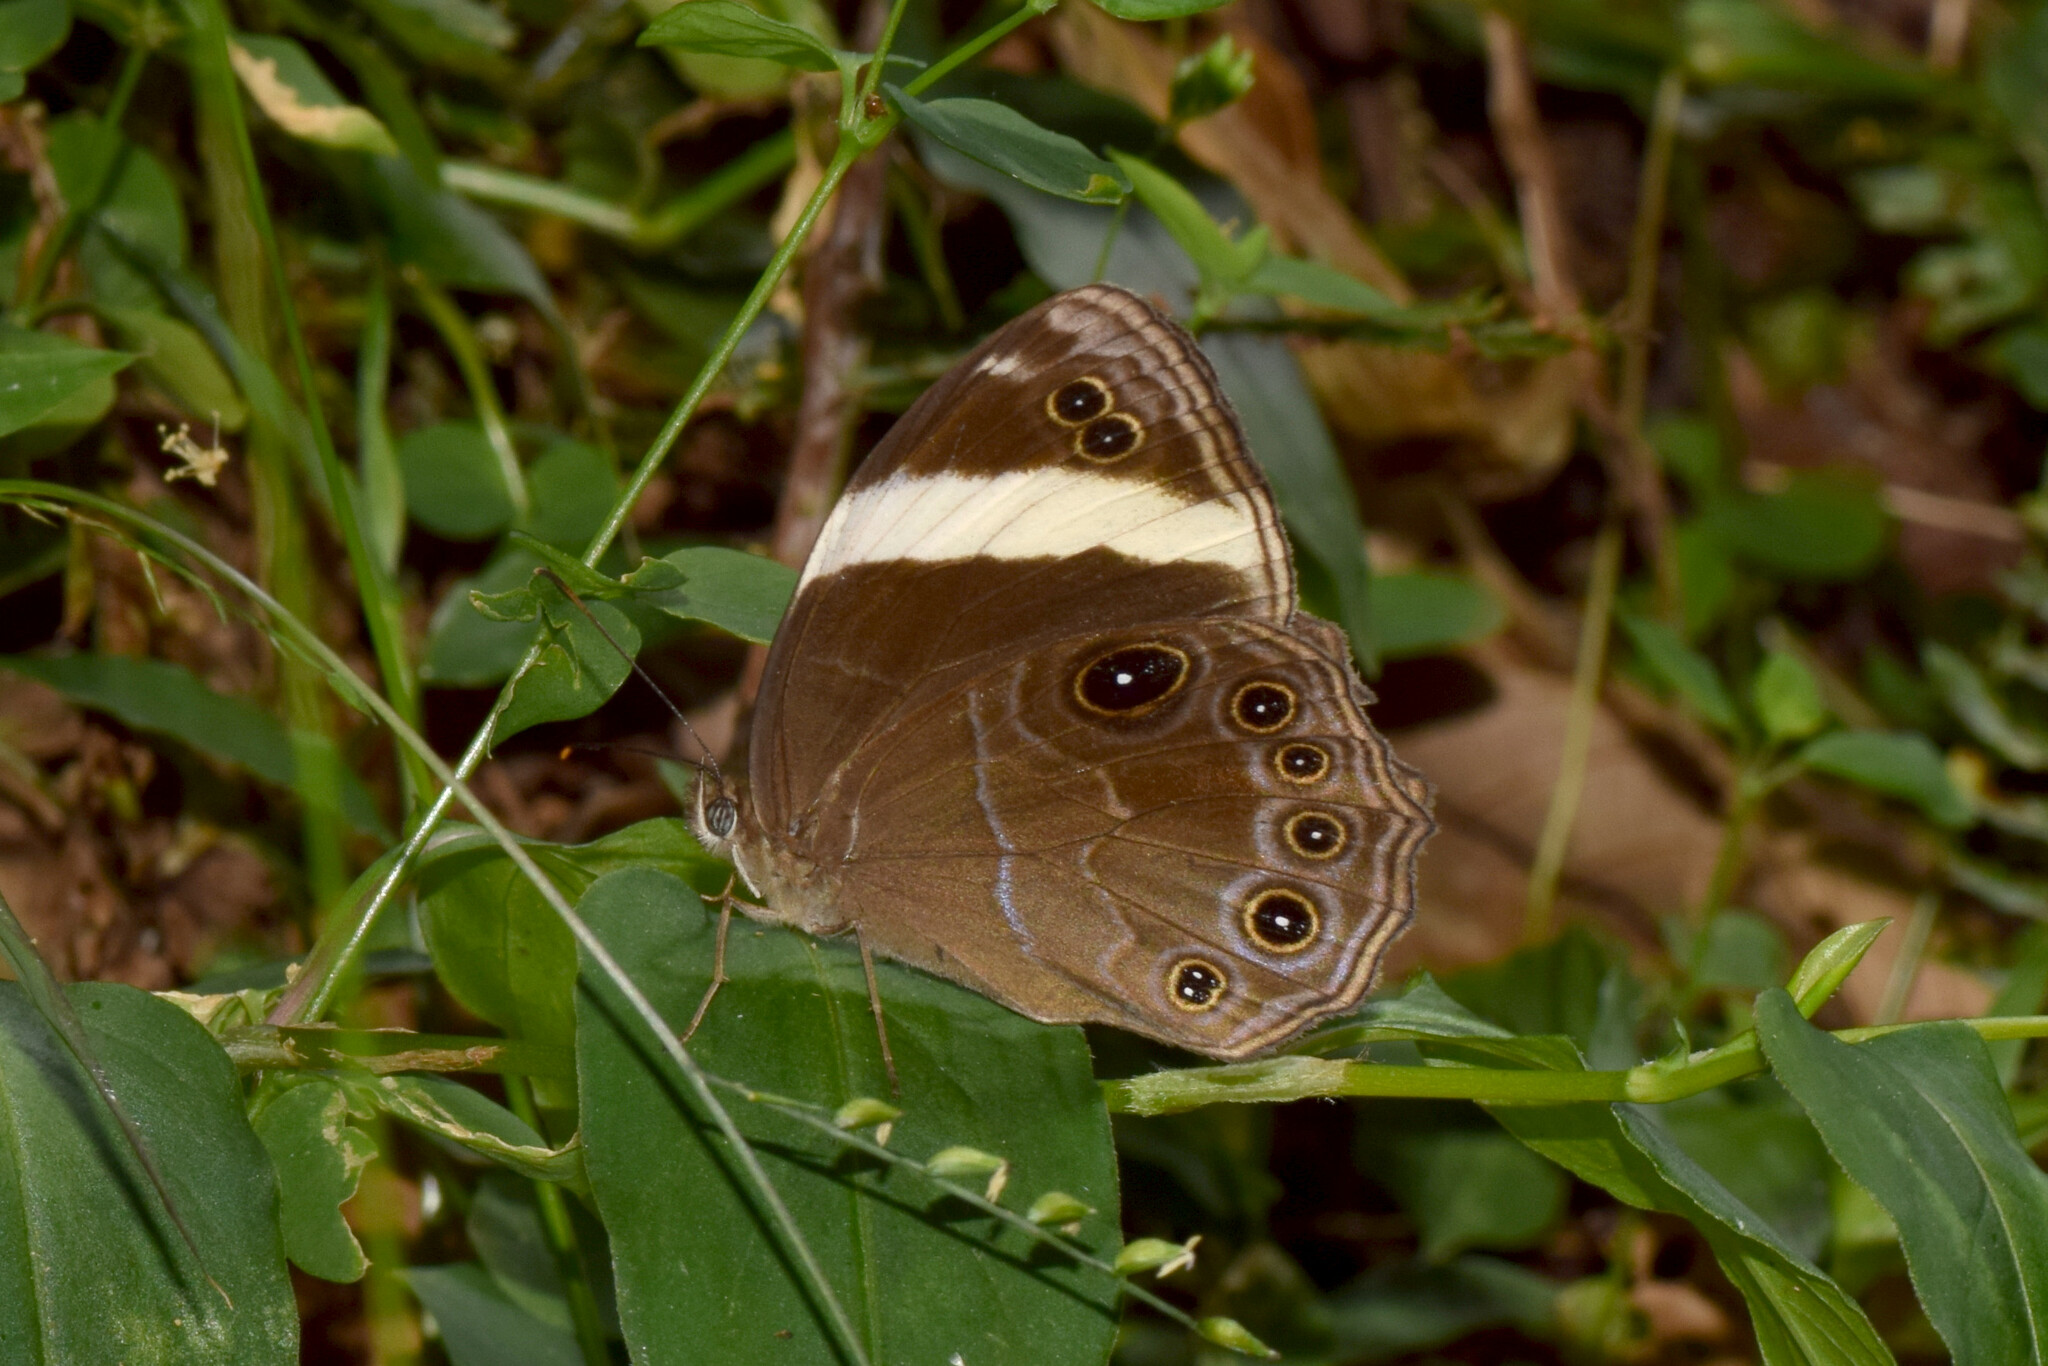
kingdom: Animalia
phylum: Arthropoda
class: Insecta
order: Lepidoptera
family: Nymphalidae
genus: Lethe
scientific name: Lethe verma
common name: Straight-banded treebrown
